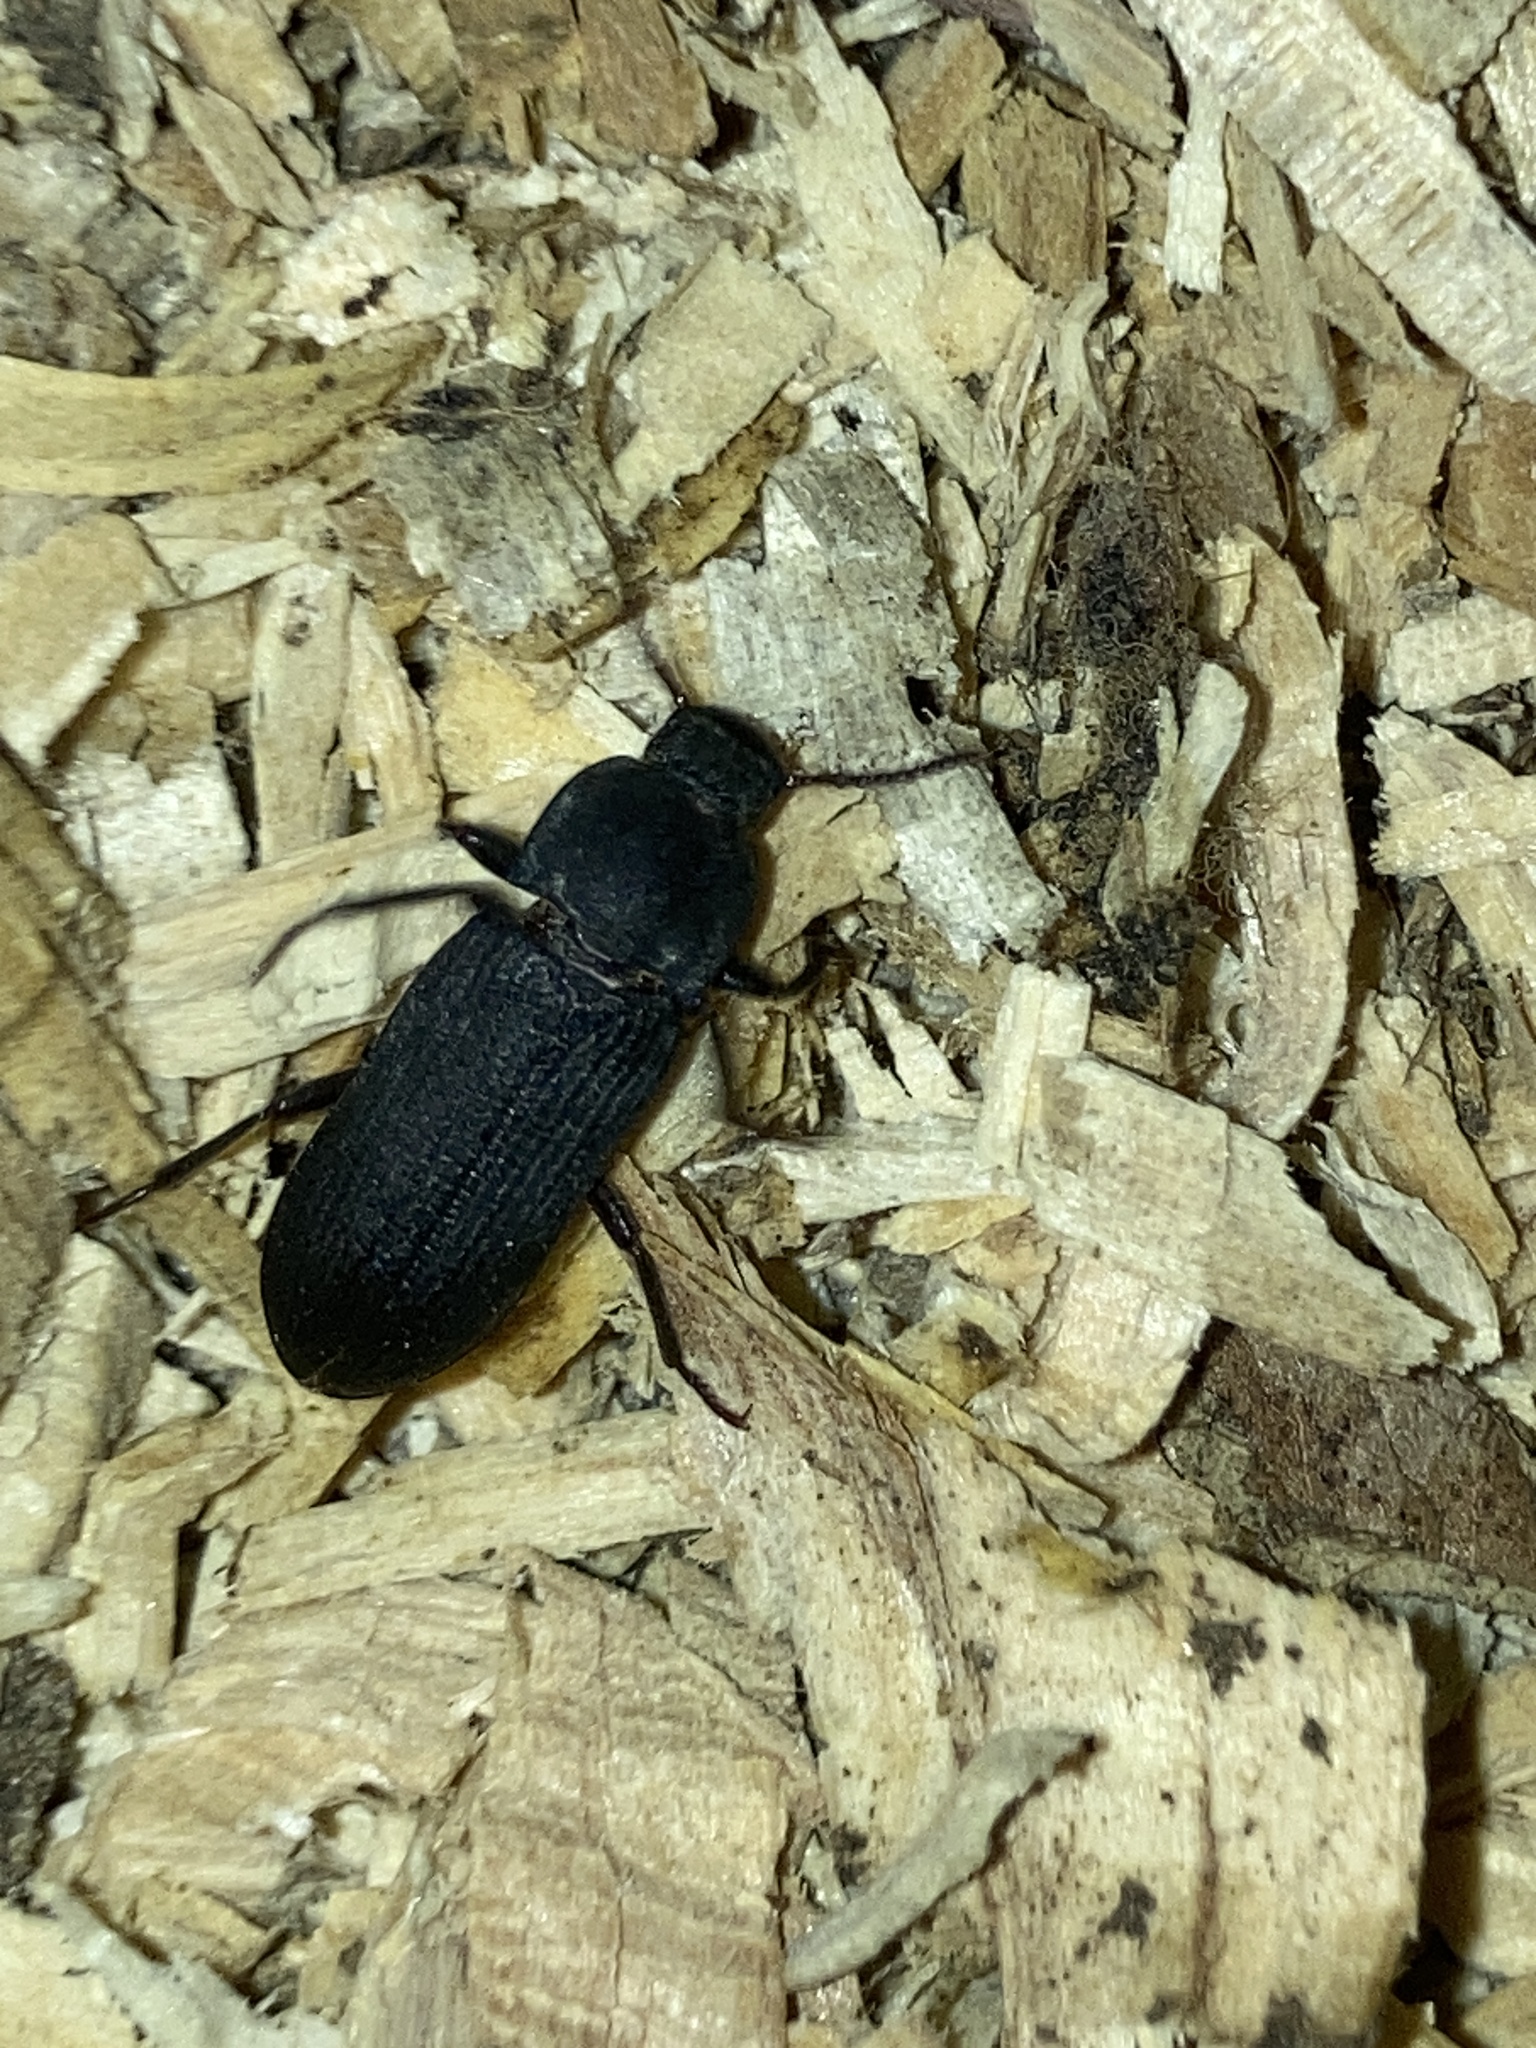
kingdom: Animalia
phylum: Arthropoda
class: Insecta
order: Coleoptera
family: Tenebrionidae
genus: Tenebrio
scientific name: Tenebrio obscurus
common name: Dark mealworm beetle
